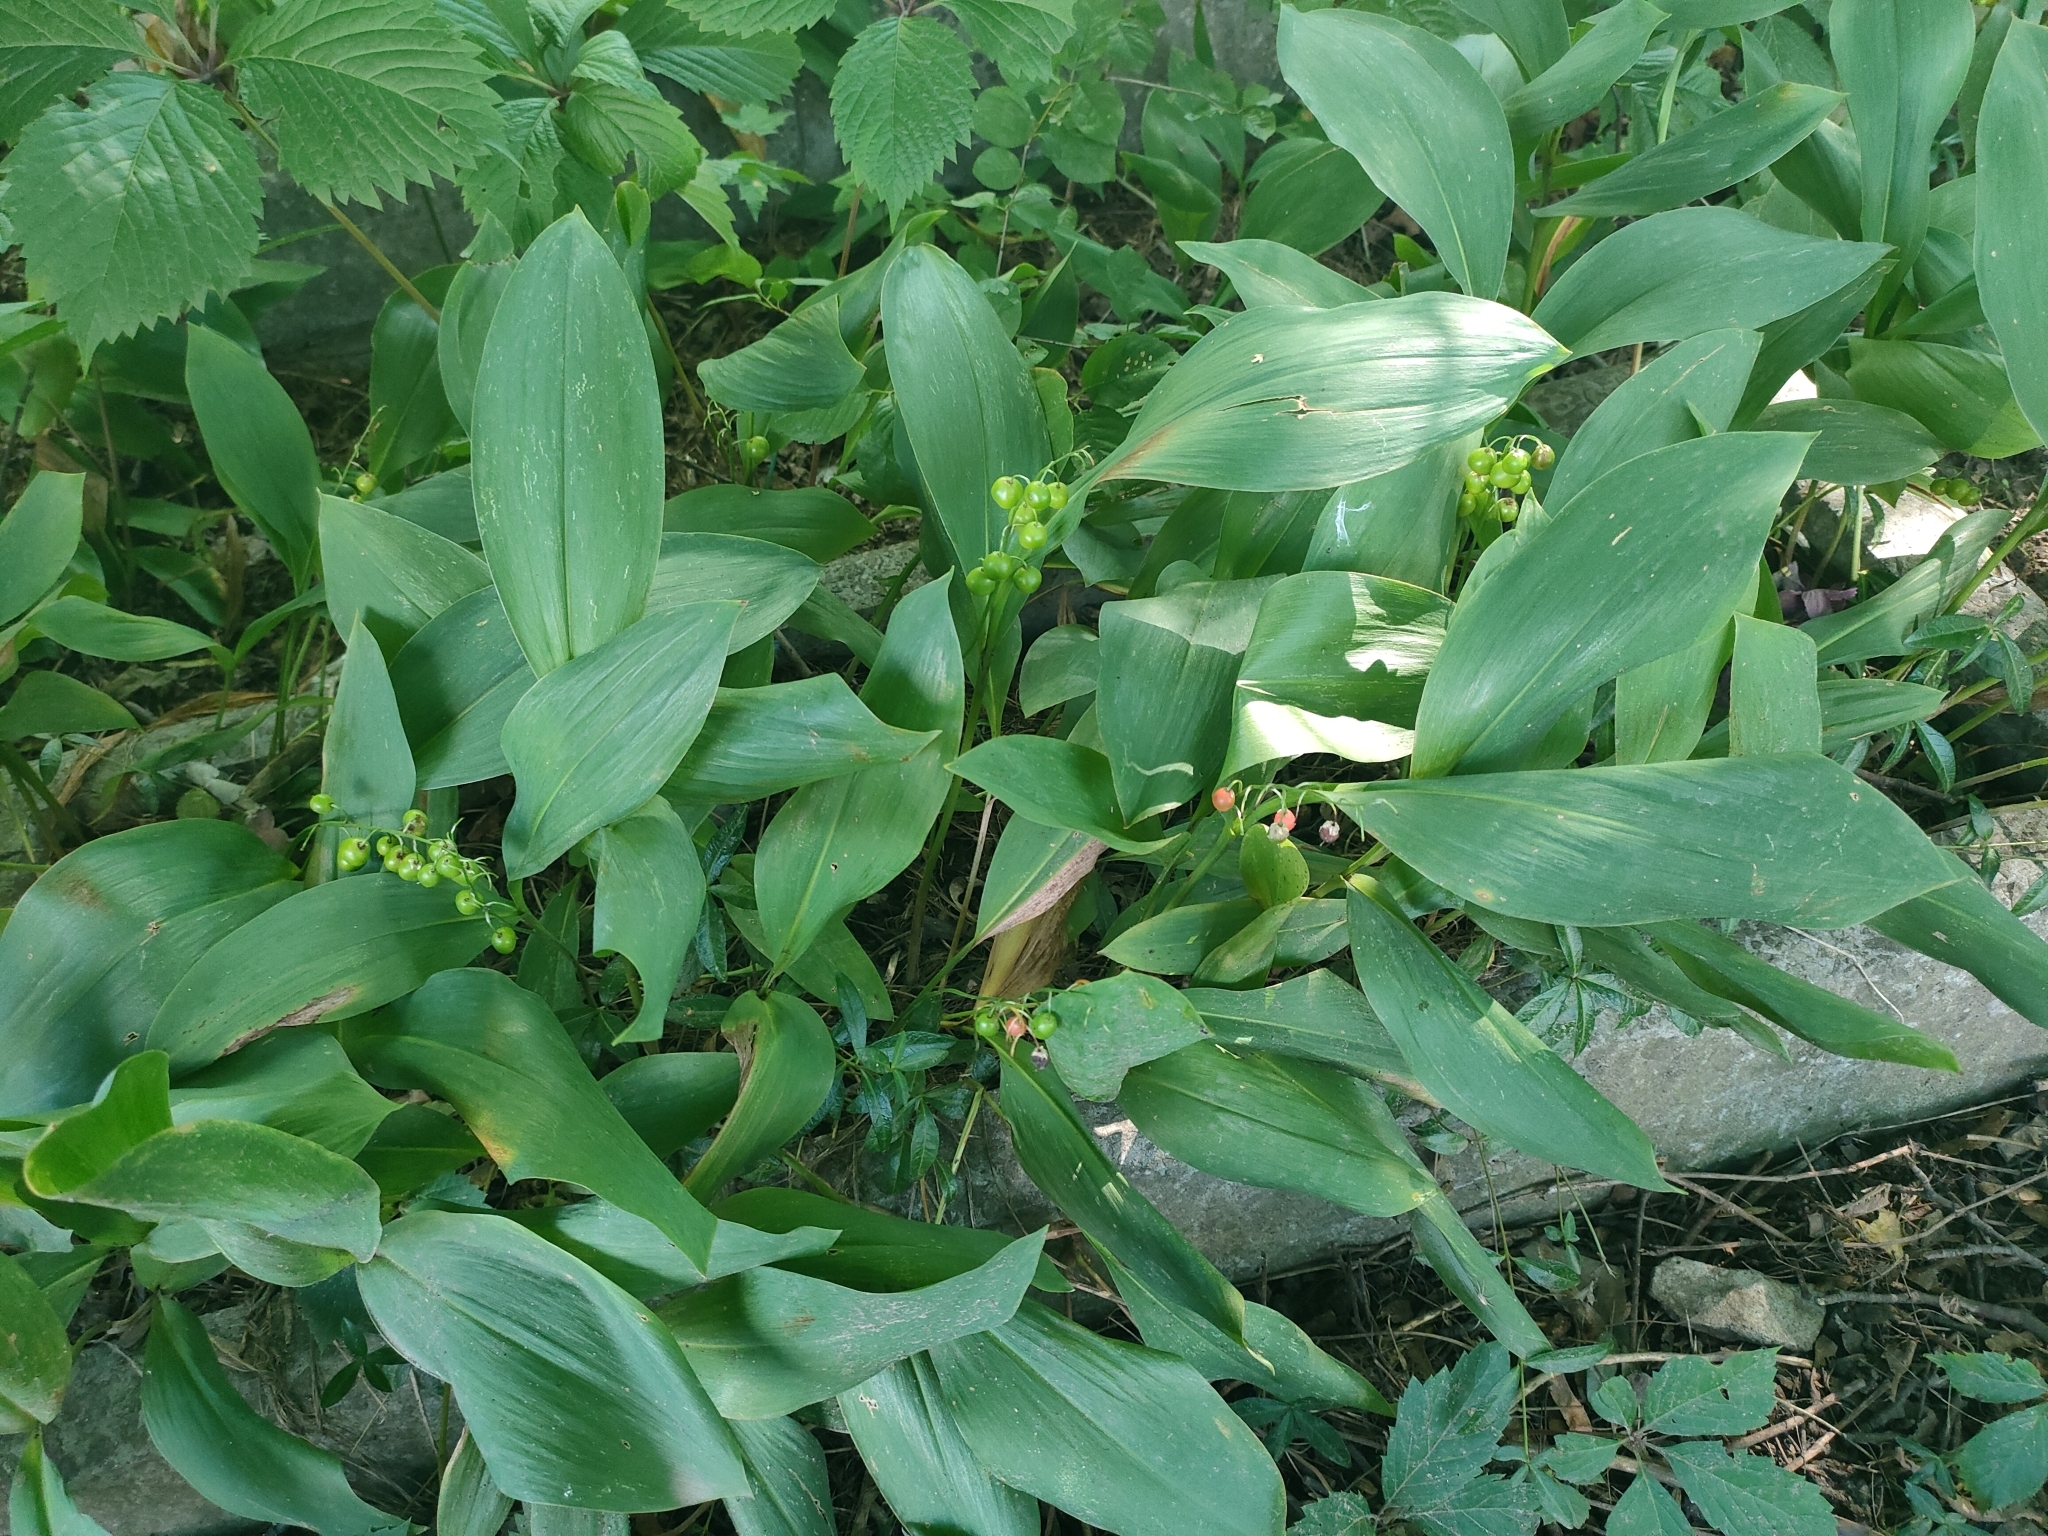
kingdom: Plantae
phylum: Tracheophyta
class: Liliopsida
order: Asparagales
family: Asparagaceae
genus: Convallaria
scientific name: Convallaria majalis
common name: Lily-of-the-valley
